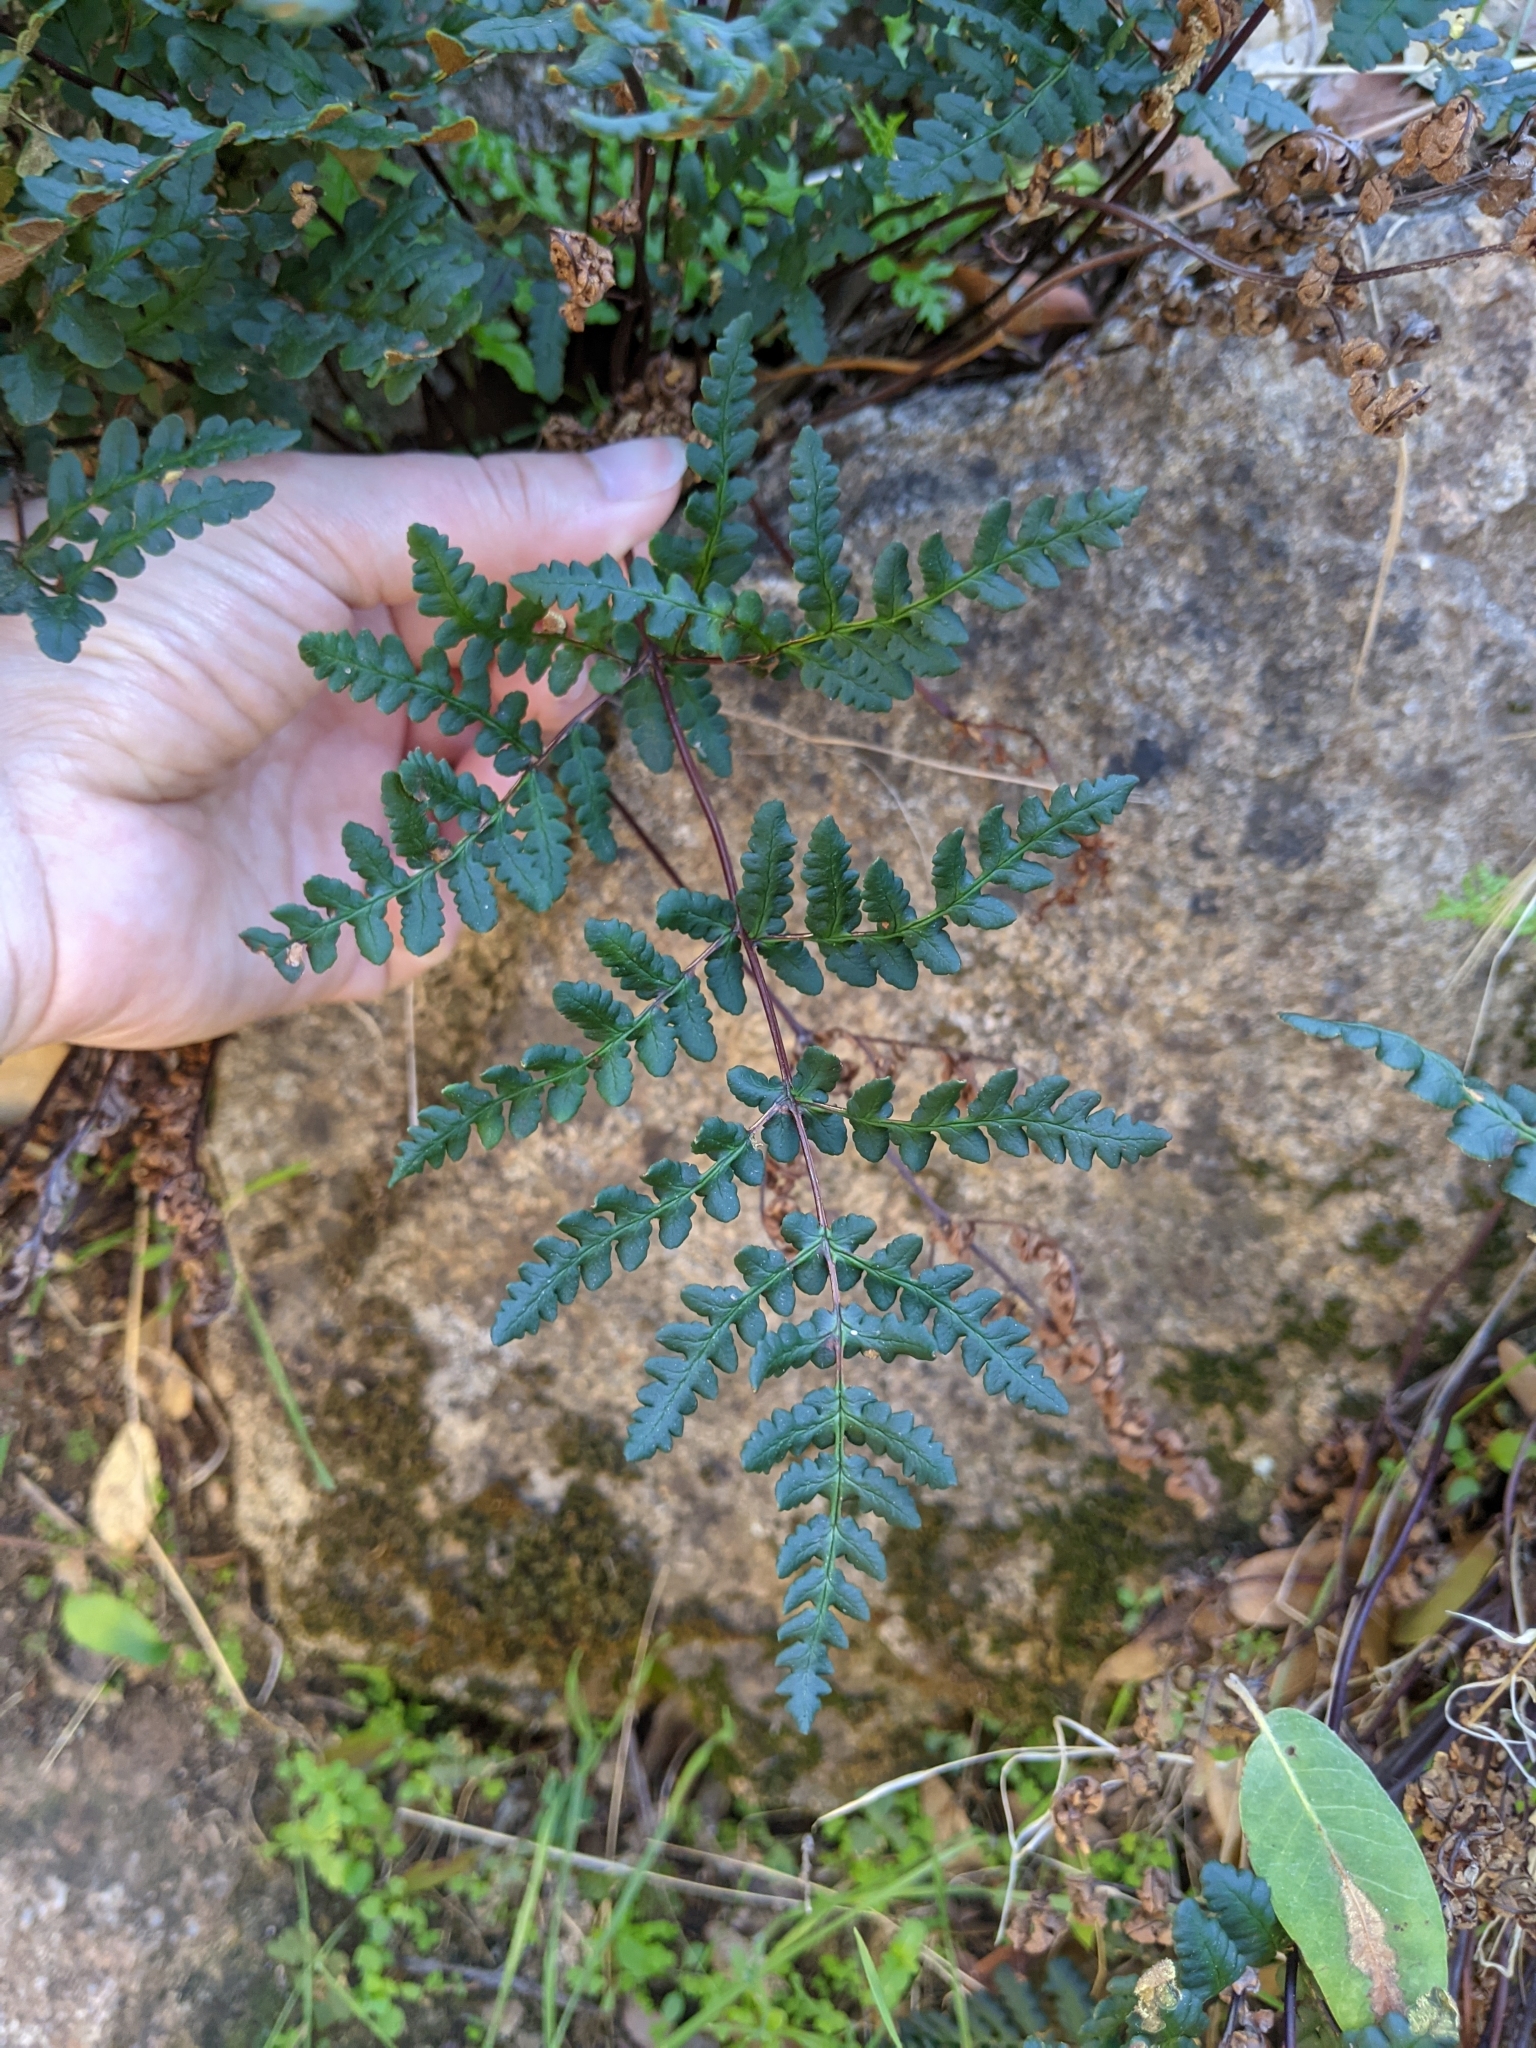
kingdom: Plantae
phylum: Tracheophyta
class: Polypodiopsida
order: Polypodiales
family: Pteridaceae
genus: Pentagramma
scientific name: Pentagramma triangularis
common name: Gold fern
